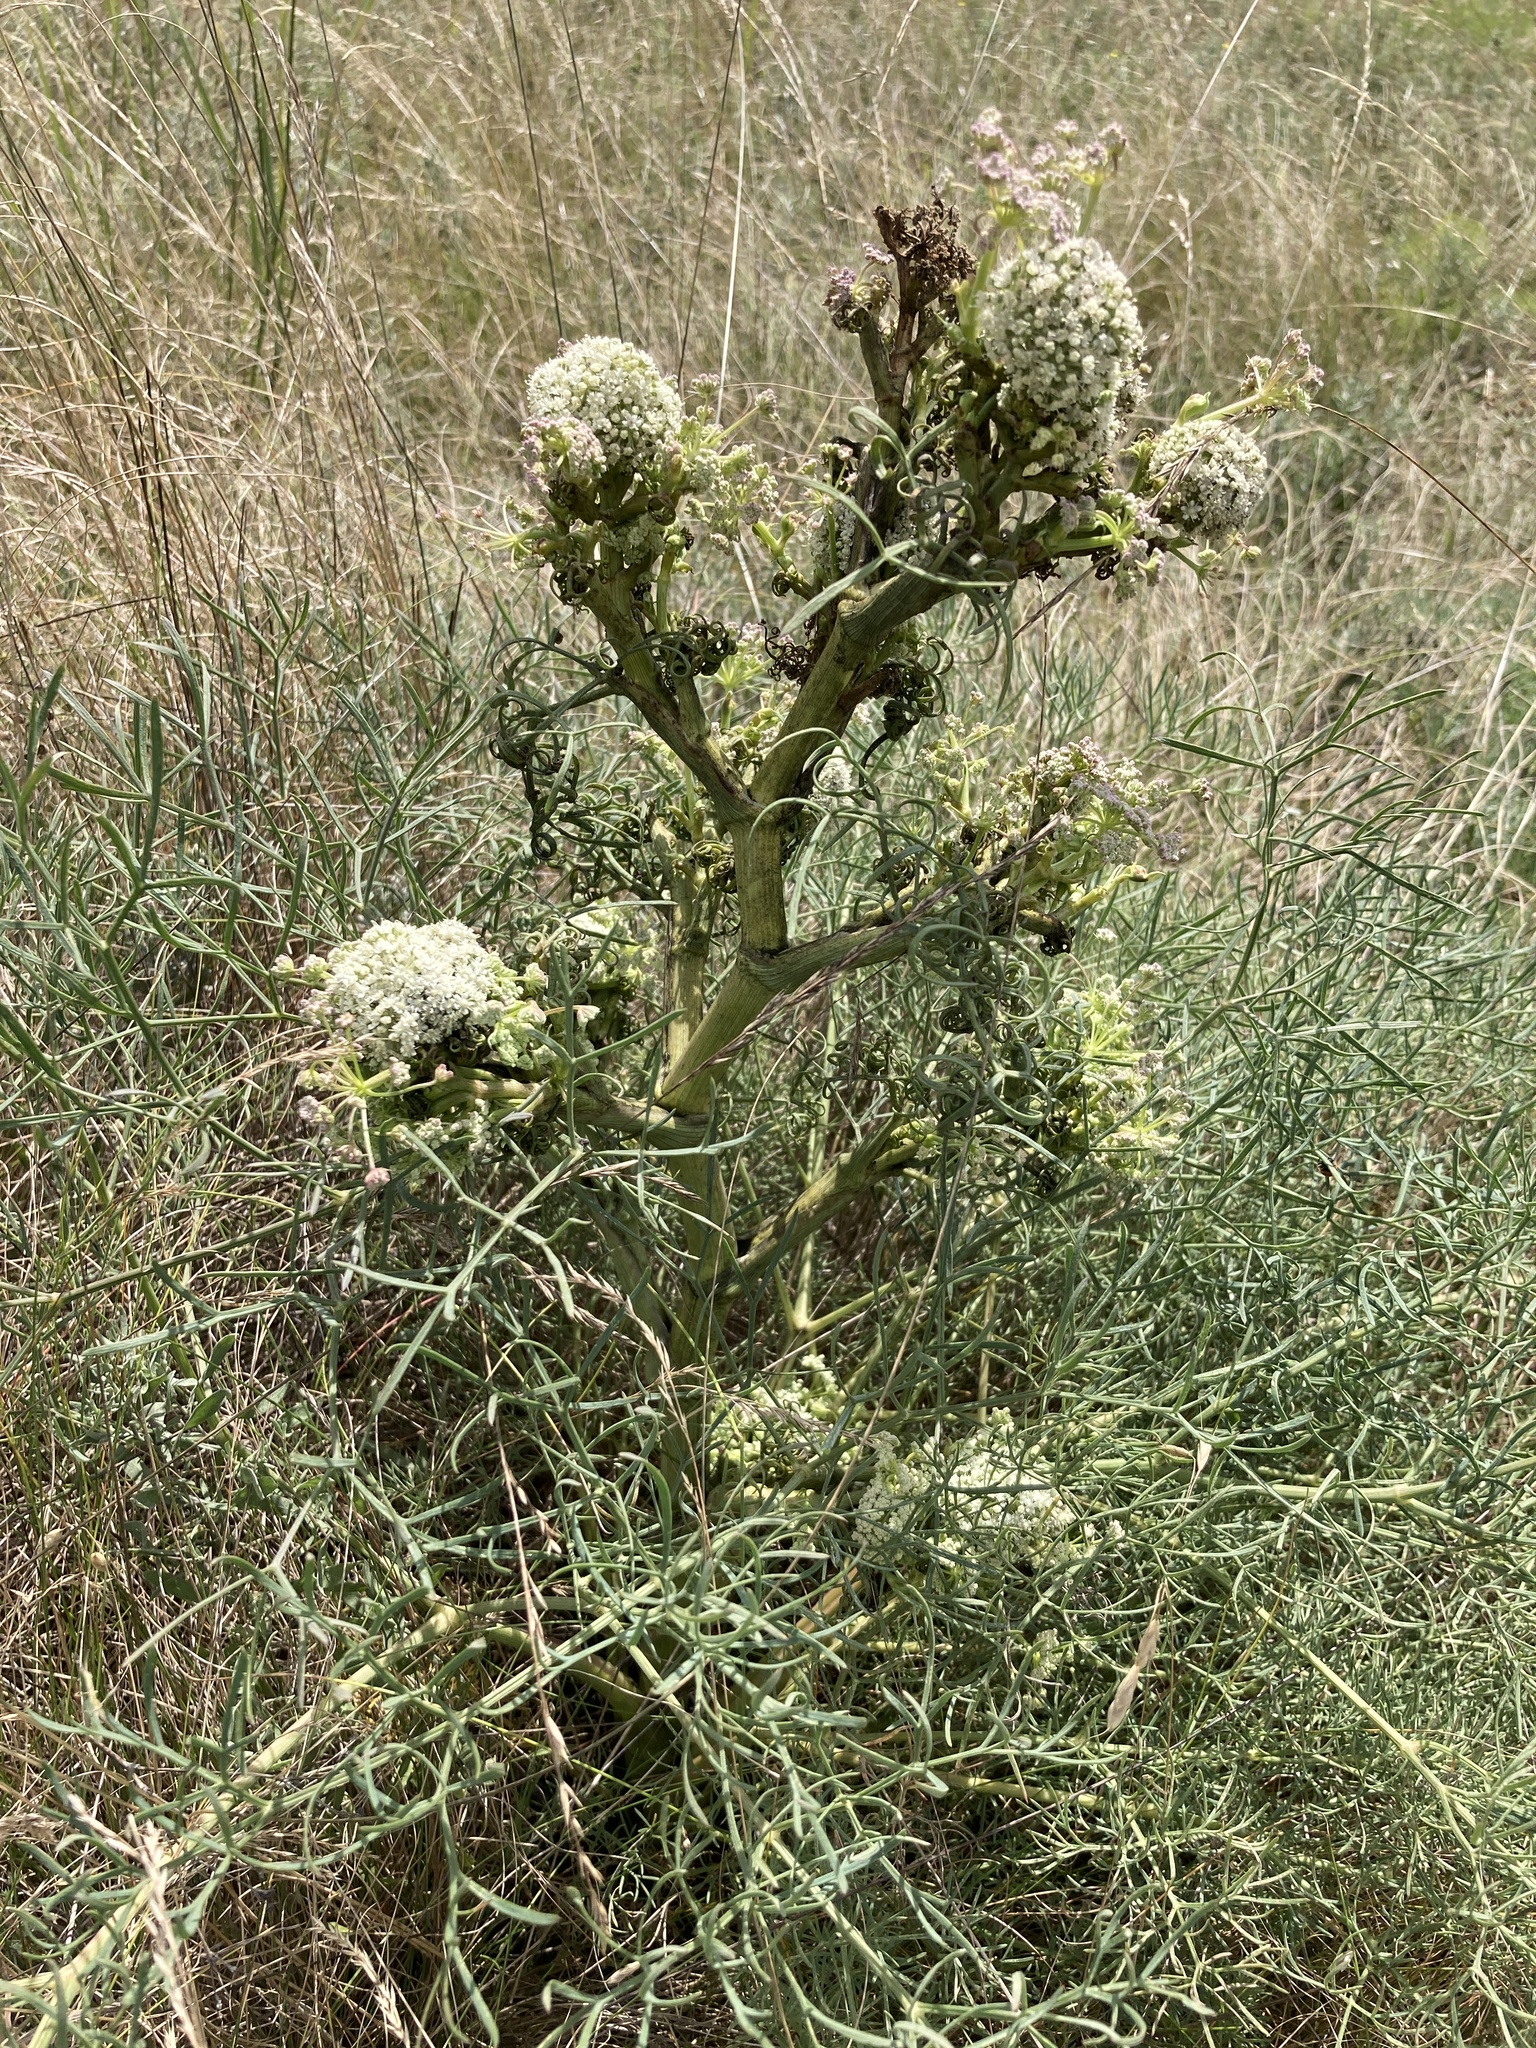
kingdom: Plantae
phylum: Tracheophyta
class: Magnoliopsida
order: Apiales
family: Apiaceae
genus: Seseli
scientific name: Seseli arenarium
